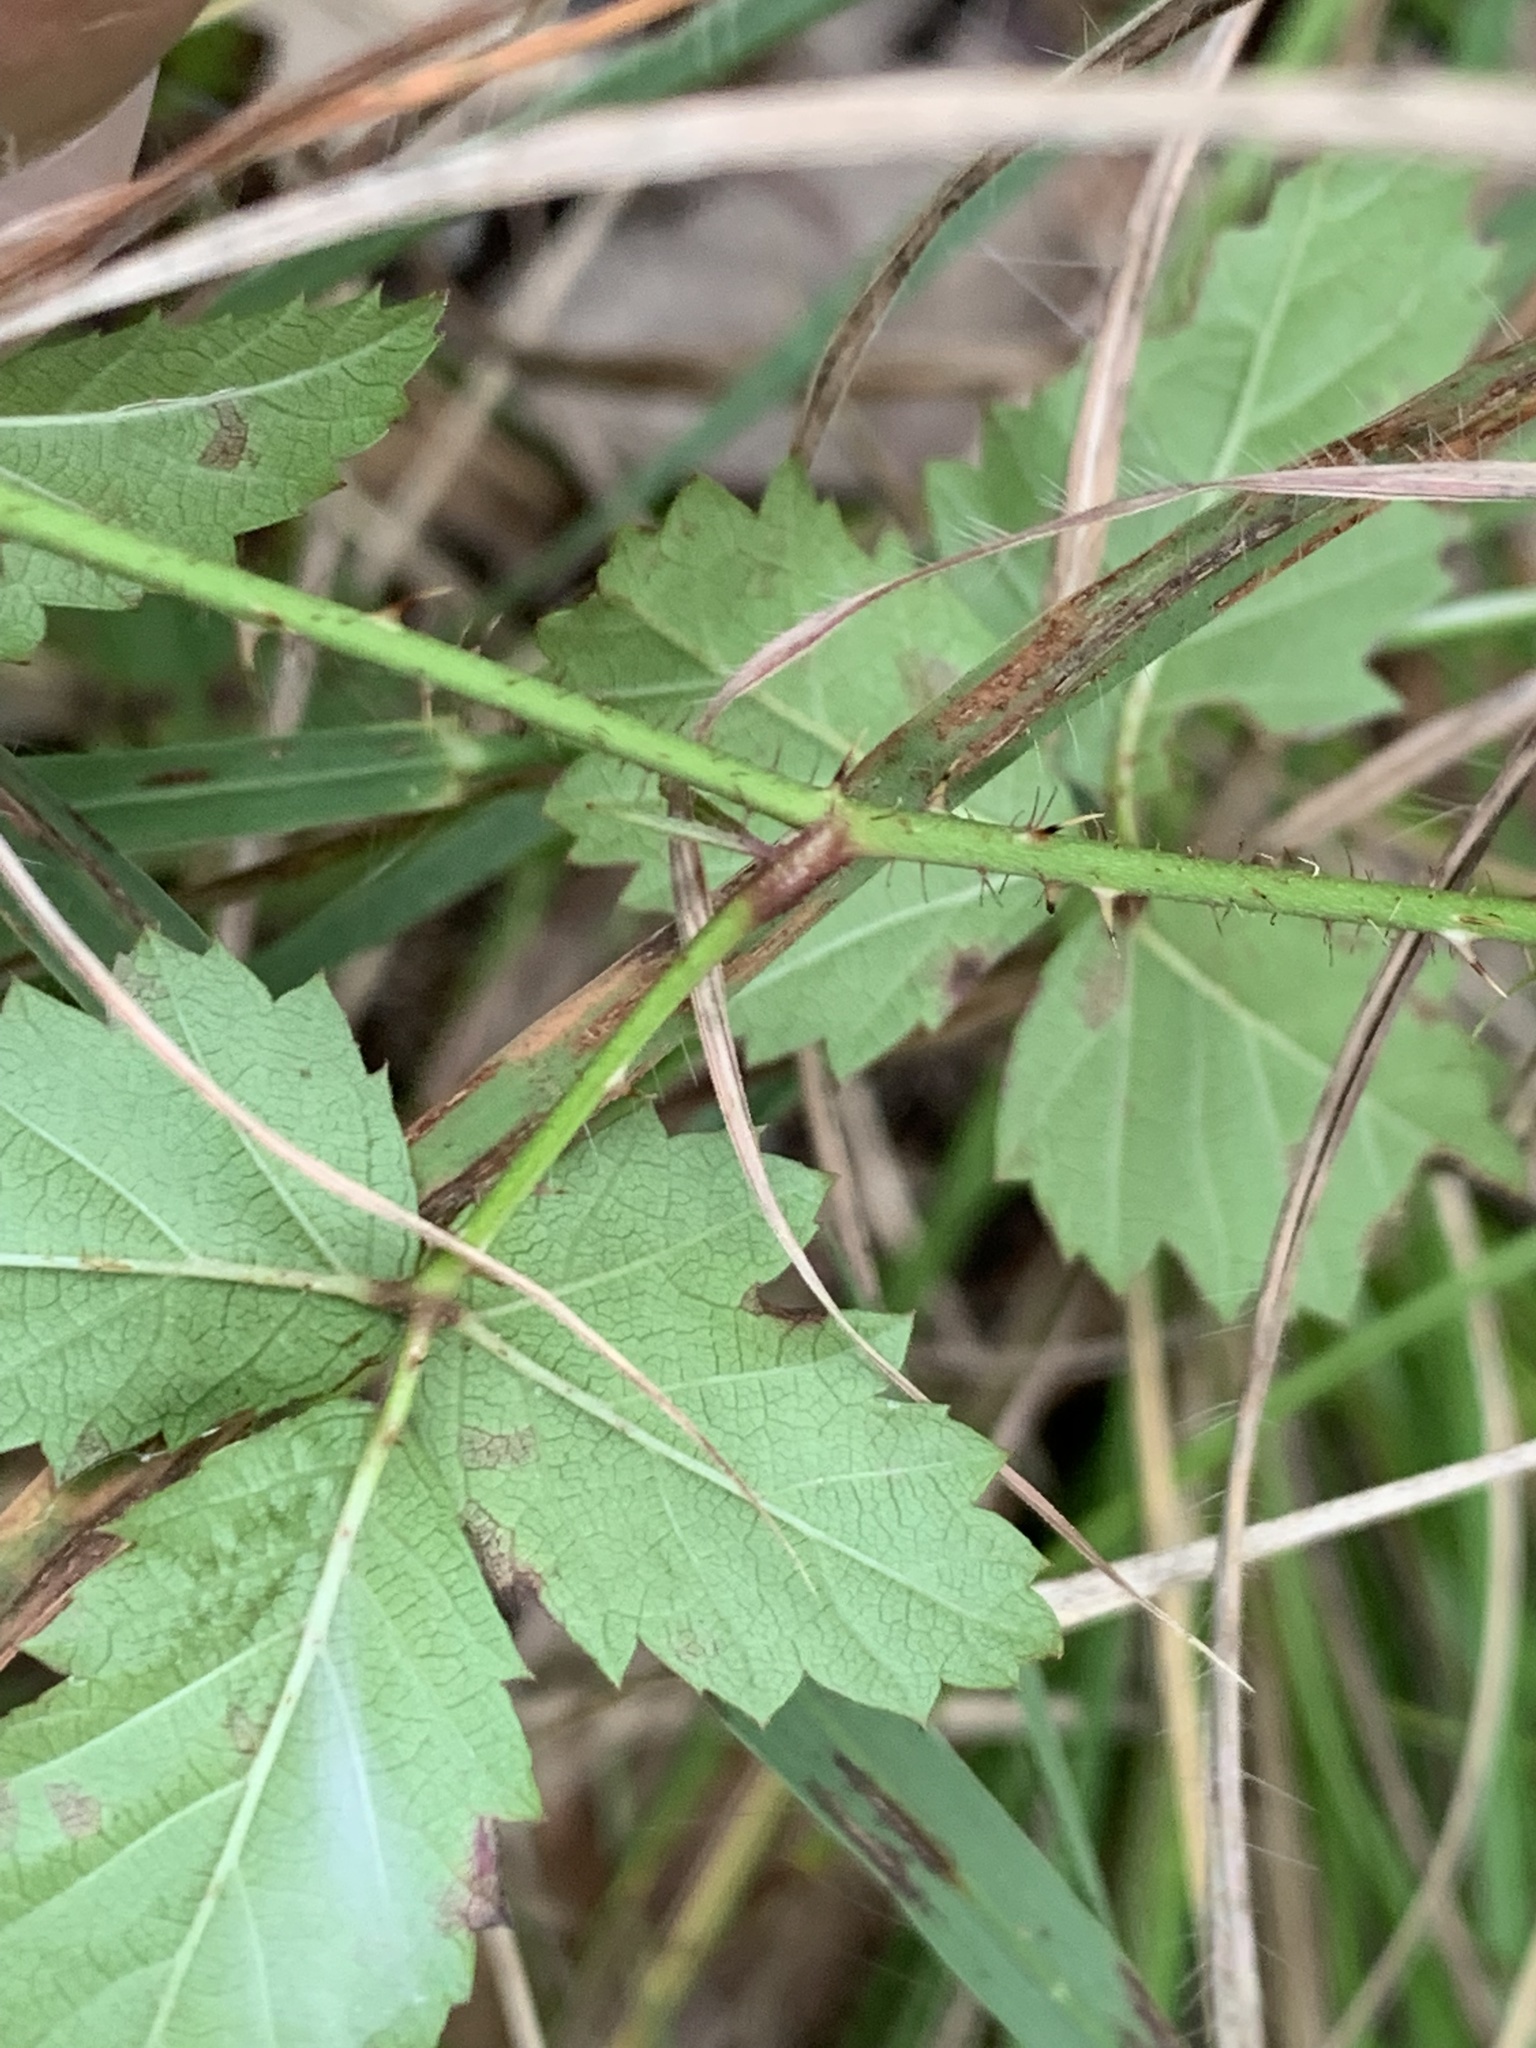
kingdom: Plantae
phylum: Tracheophyta
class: Magnoliopsida
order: Rosales
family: Rosaceae
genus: Rubus
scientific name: Rubus trivialis
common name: Southern dewberry
